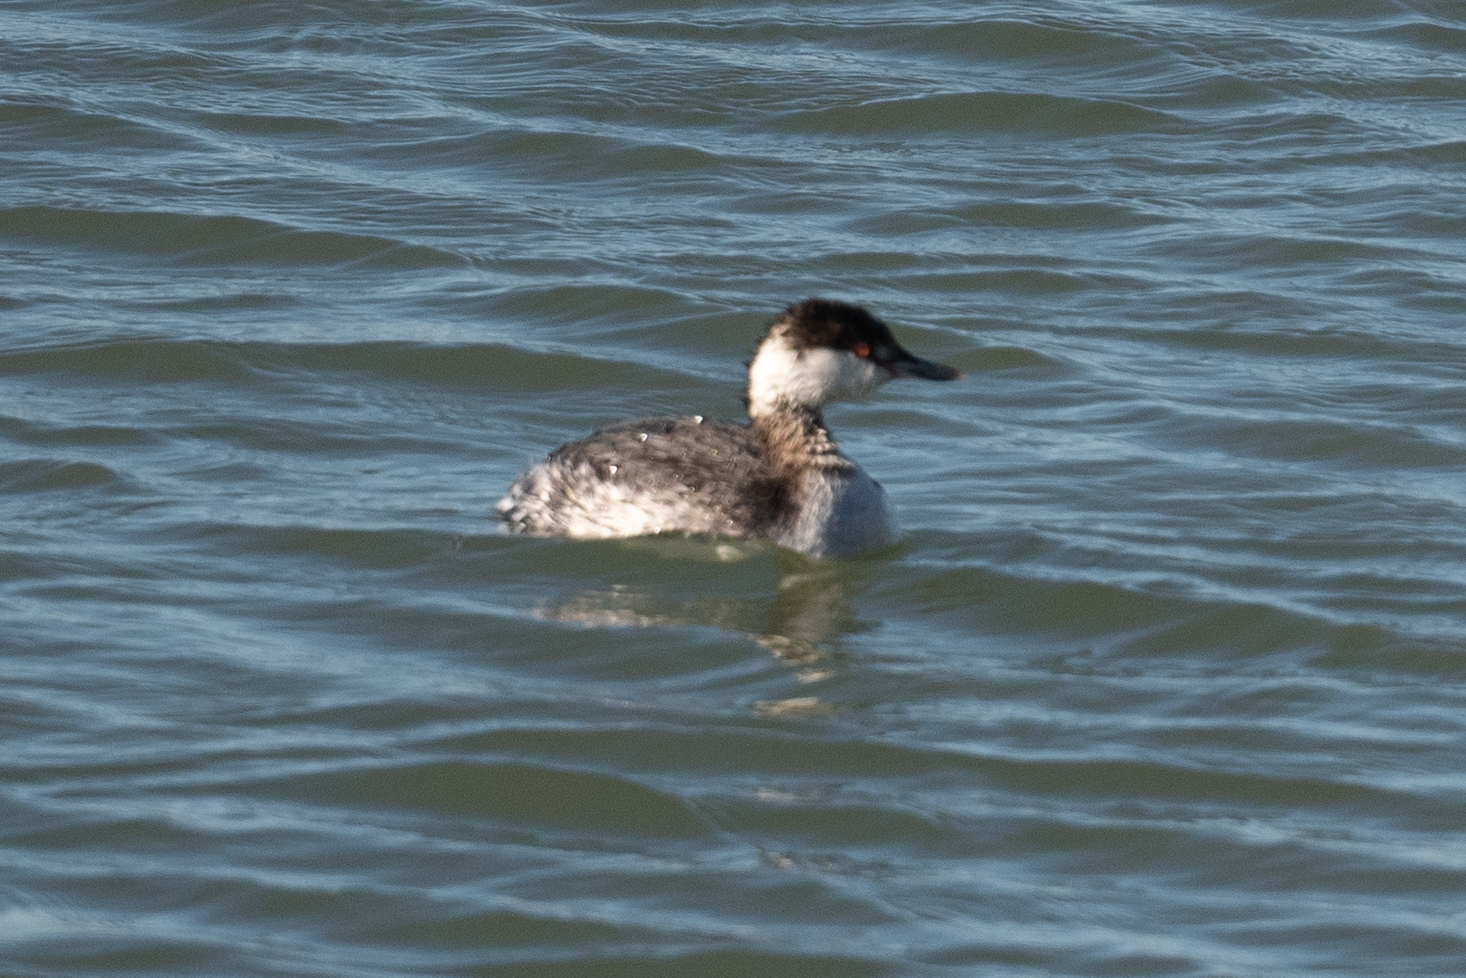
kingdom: Animalia
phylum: Chordata
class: Aves
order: Podicipediformes
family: Podicipedidae
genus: Podiceps
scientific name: Podiceps auritus
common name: Horned grebe
